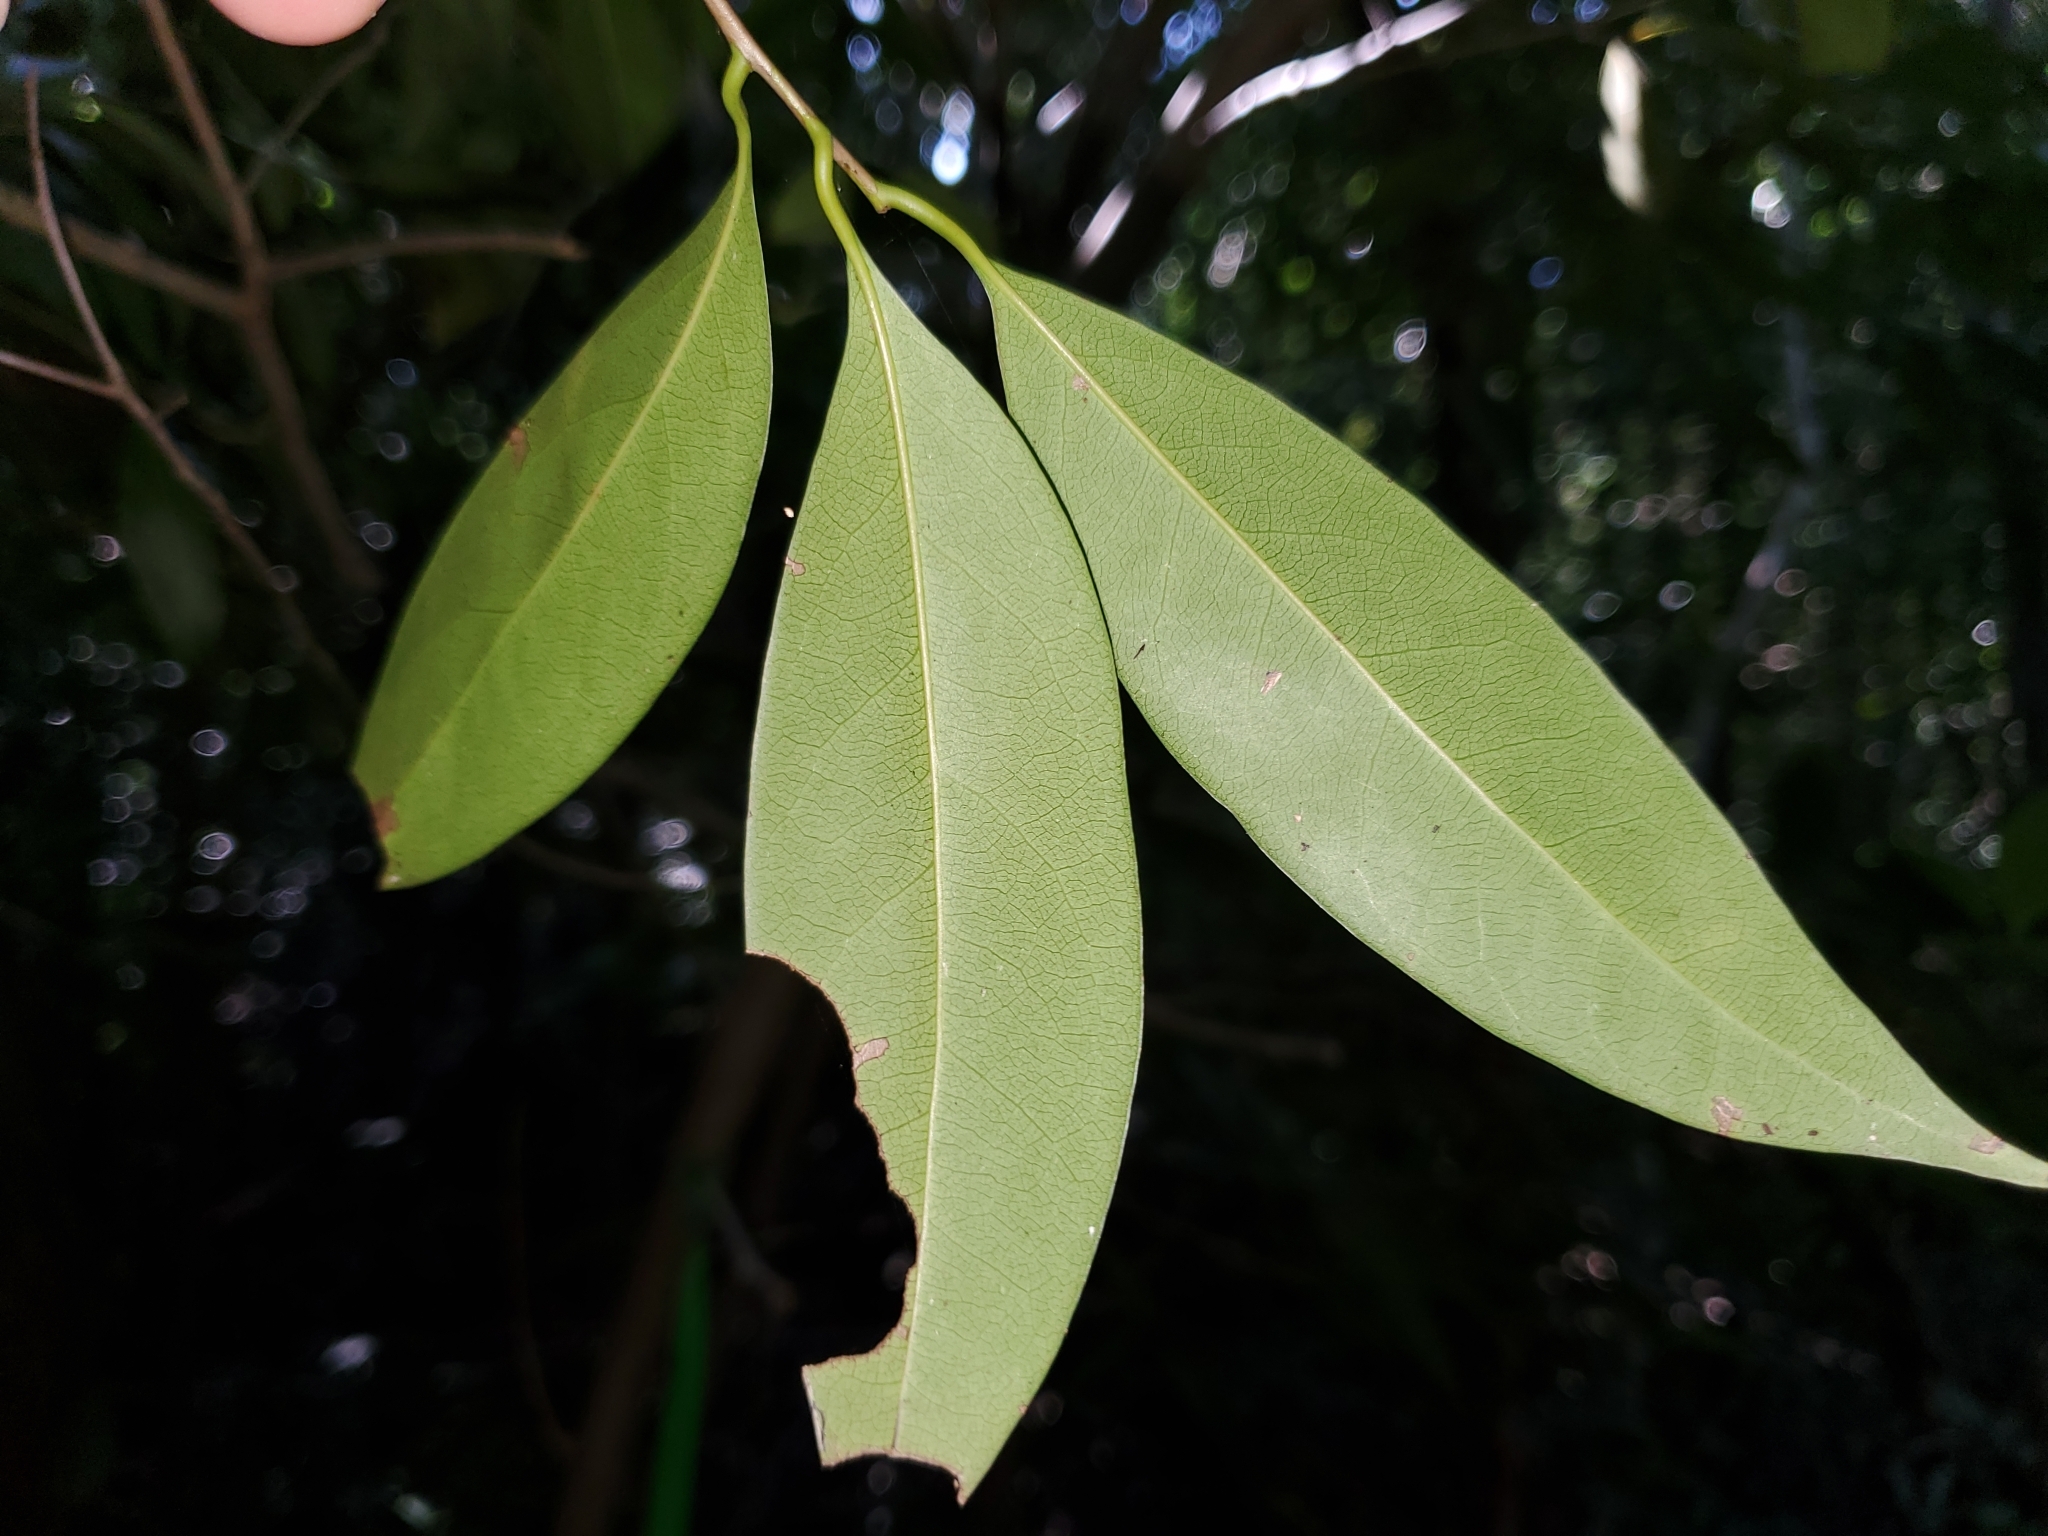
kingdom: Plantae
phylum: Tracheophyta
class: Magnoliopsida
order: Laurales
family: Lauraceae
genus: Damburneya
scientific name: Damburneya
